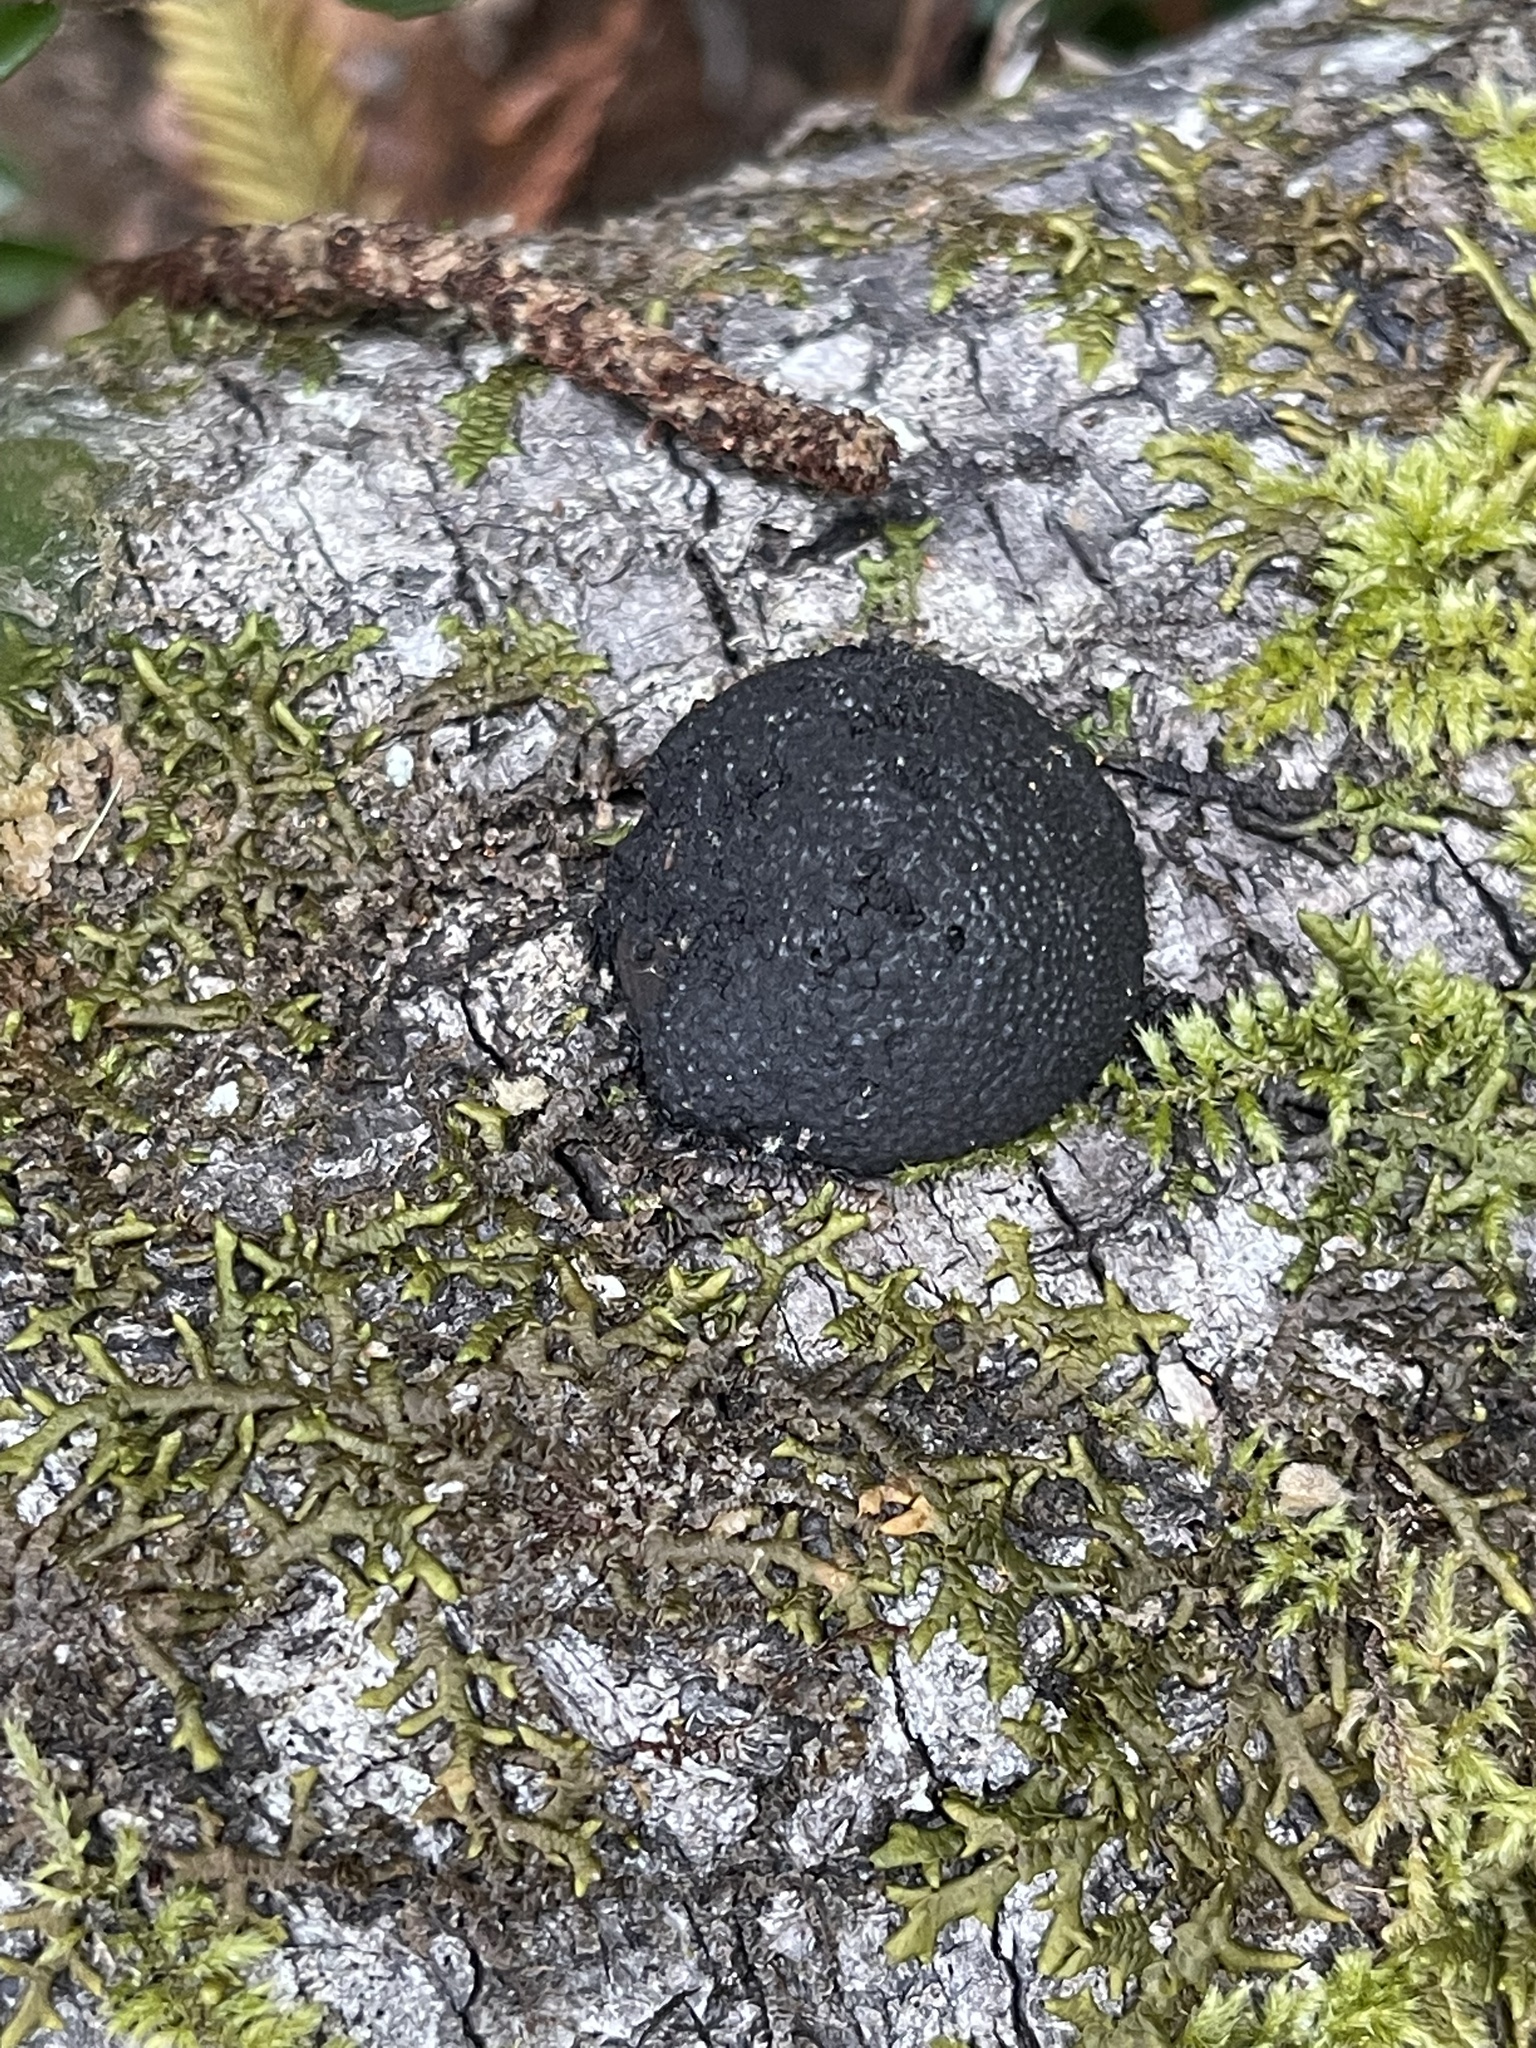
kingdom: Fungi
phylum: Ascomycota
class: Sordariomycetes
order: Xylariales
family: Hypoxylaceae
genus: Annulohypoxylon
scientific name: Annulohypoxylon thouarsianum
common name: Cramp balls
